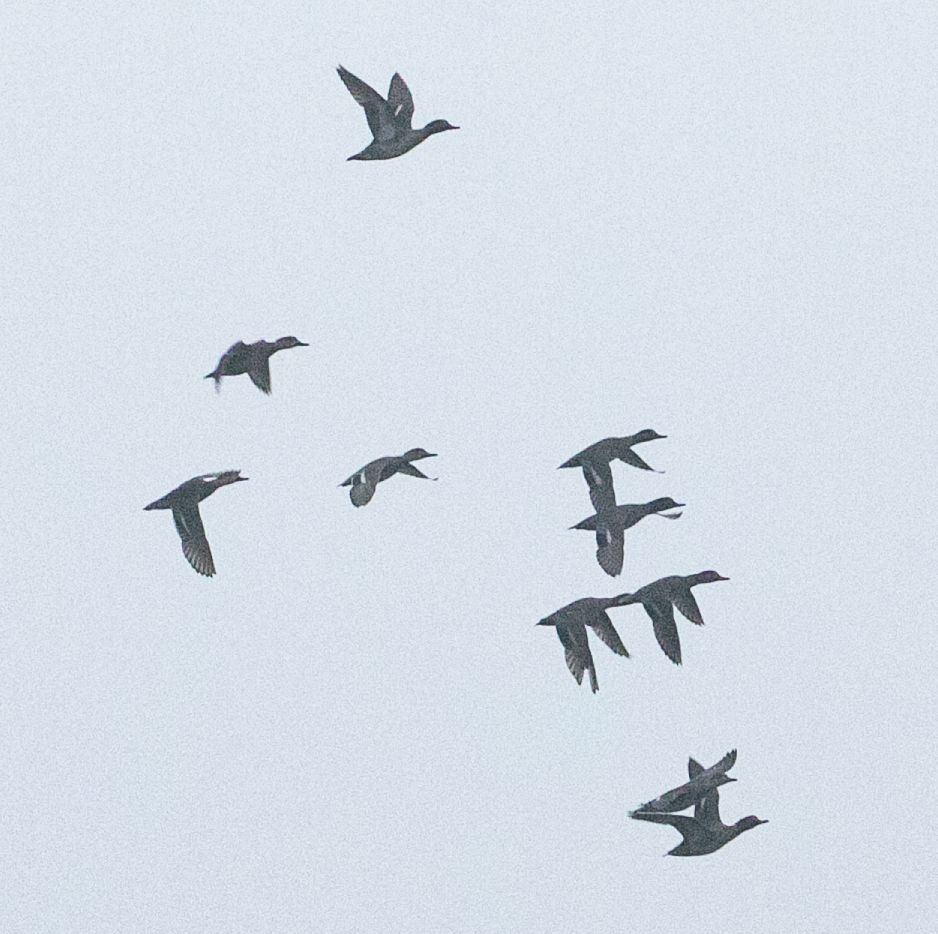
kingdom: Animalia
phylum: Chordata
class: Aves
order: Anseriformes
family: Anatidae
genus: Anas
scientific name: Anas crecca
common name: Eurasian teal
